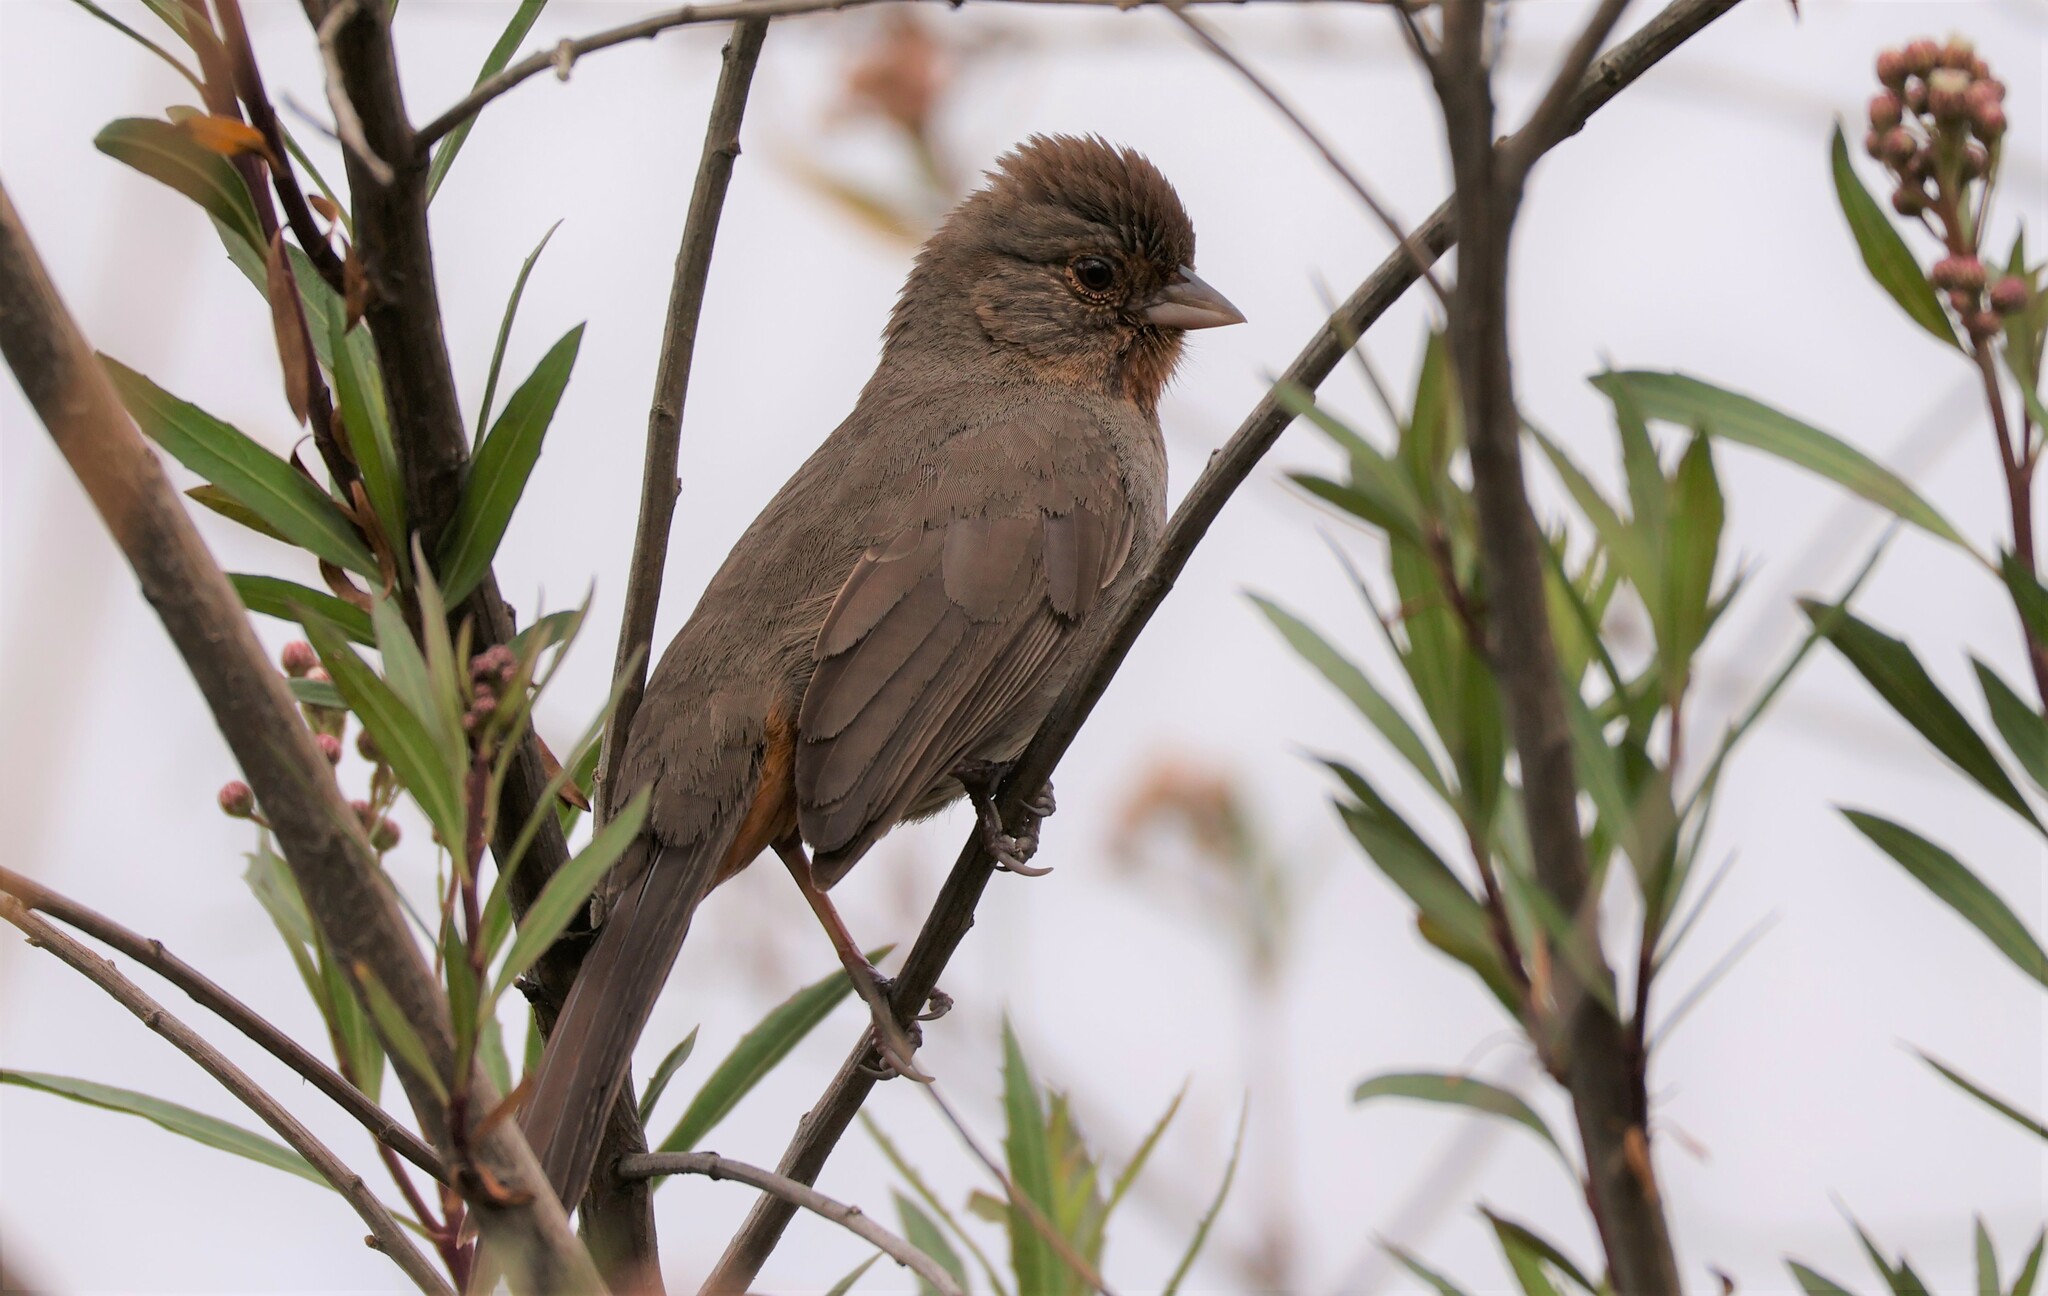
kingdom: Animalia
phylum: Chordata
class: Aves
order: Passeriformes
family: Passerellidae
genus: Melozone
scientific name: Melozone crissalis
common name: California towhee
